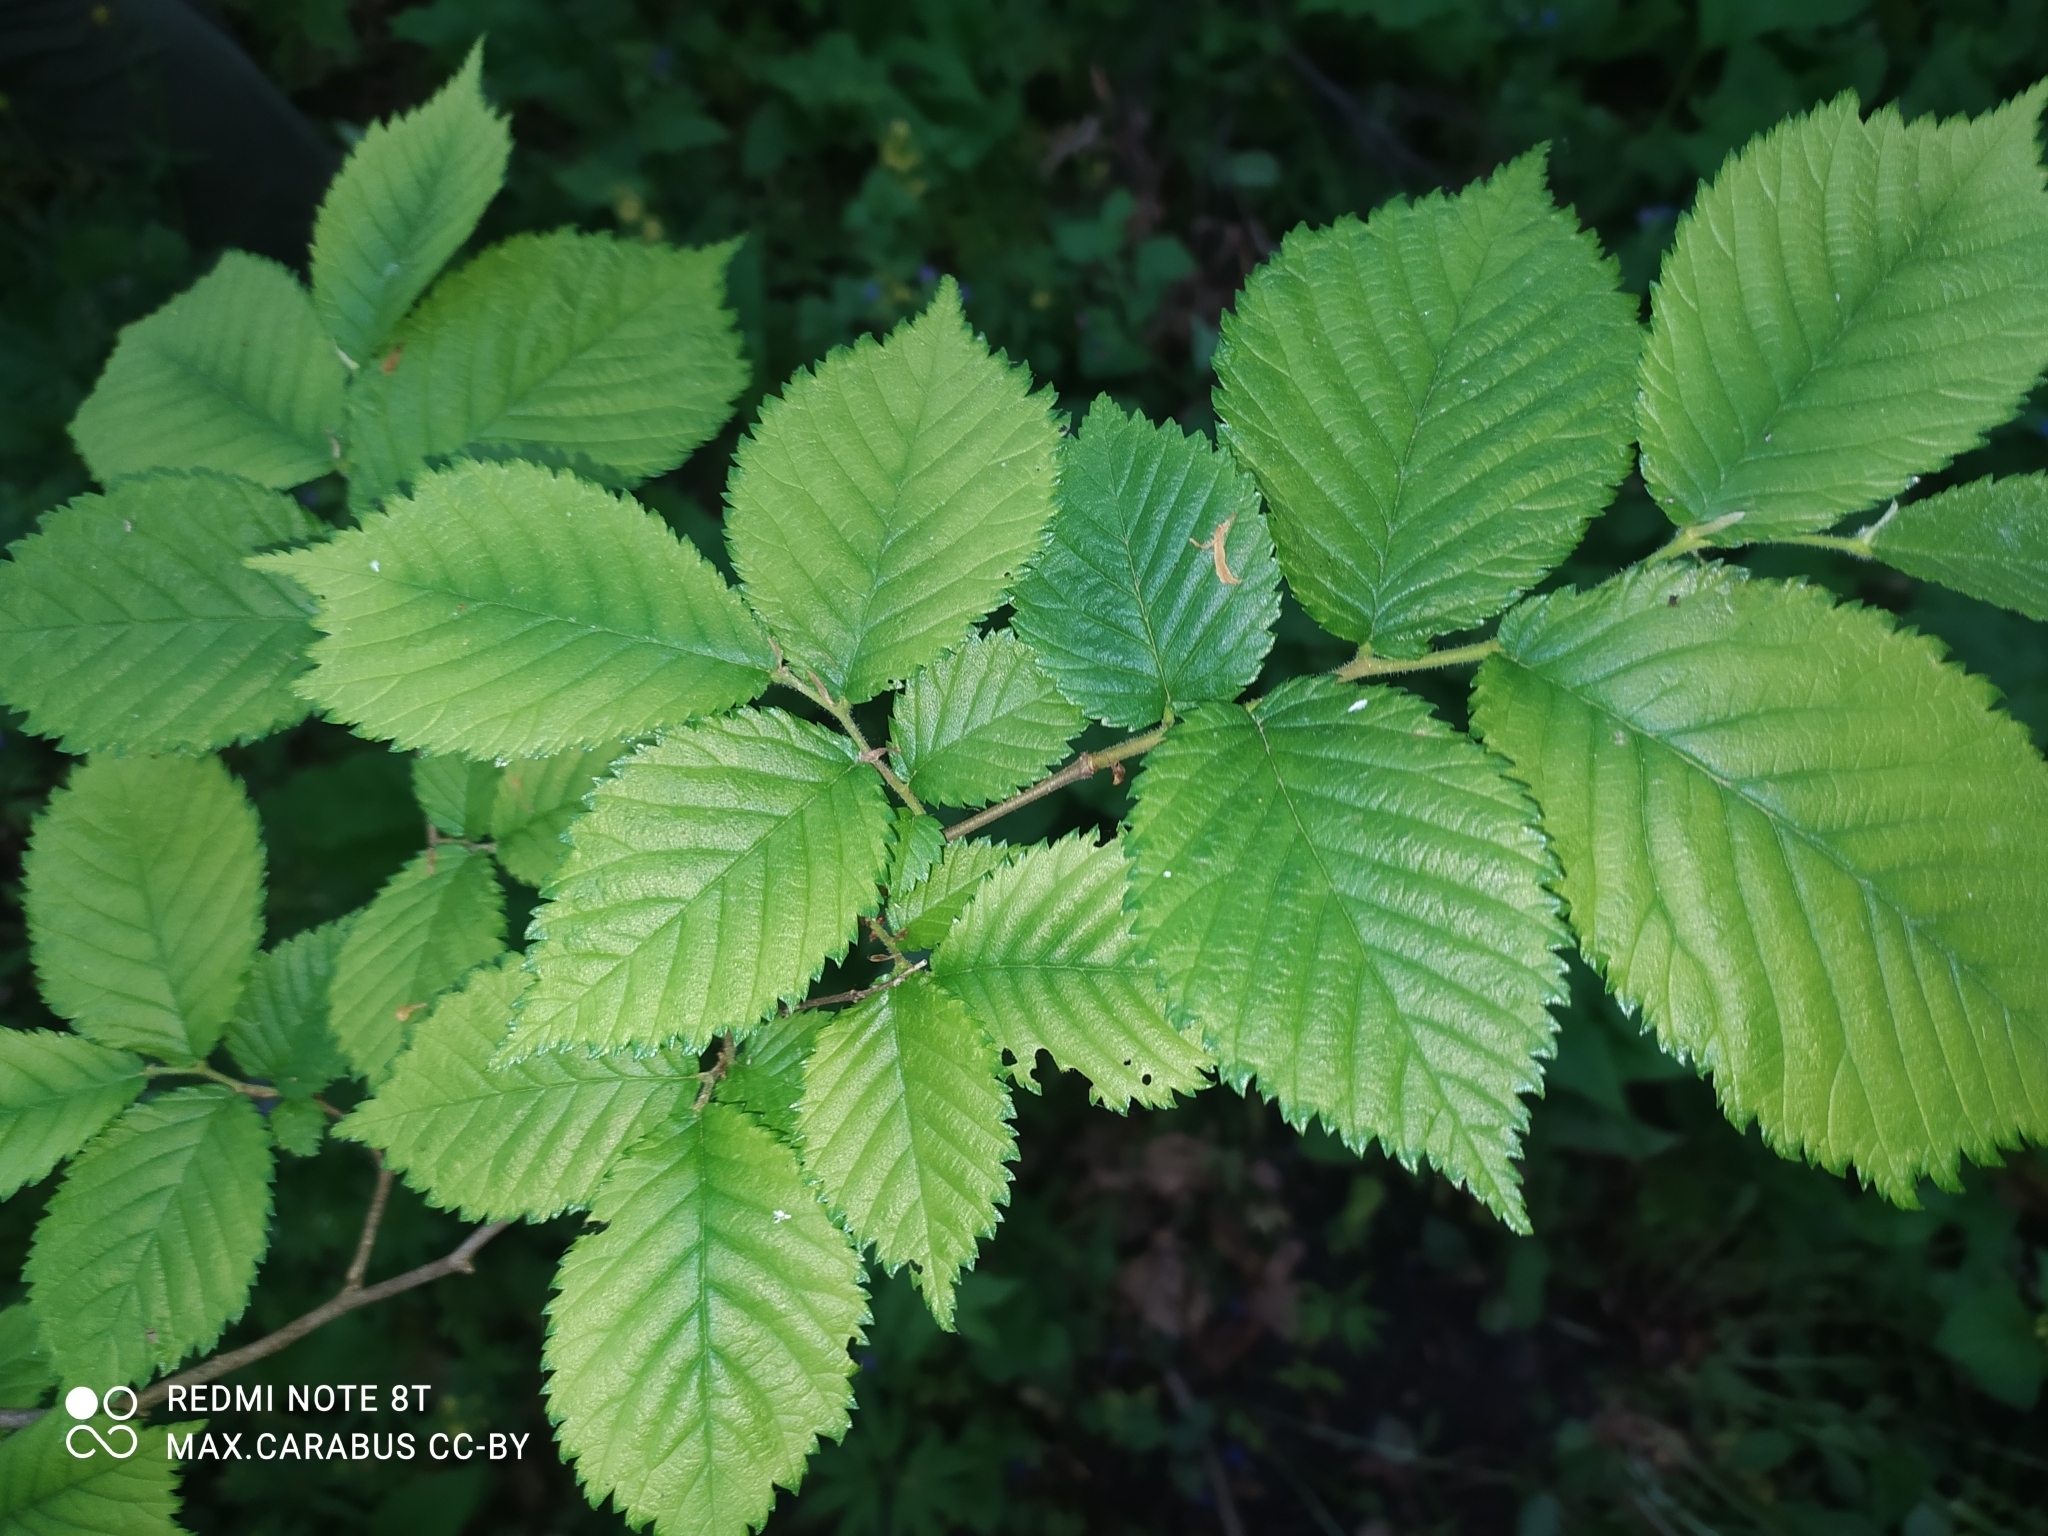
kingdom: Plantae
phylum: Tracheophyta
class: Magnoliopsida
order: Rosales
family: Ulmaceae
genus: Ulmus
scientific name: Ulmus glabra
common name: Wych elm
